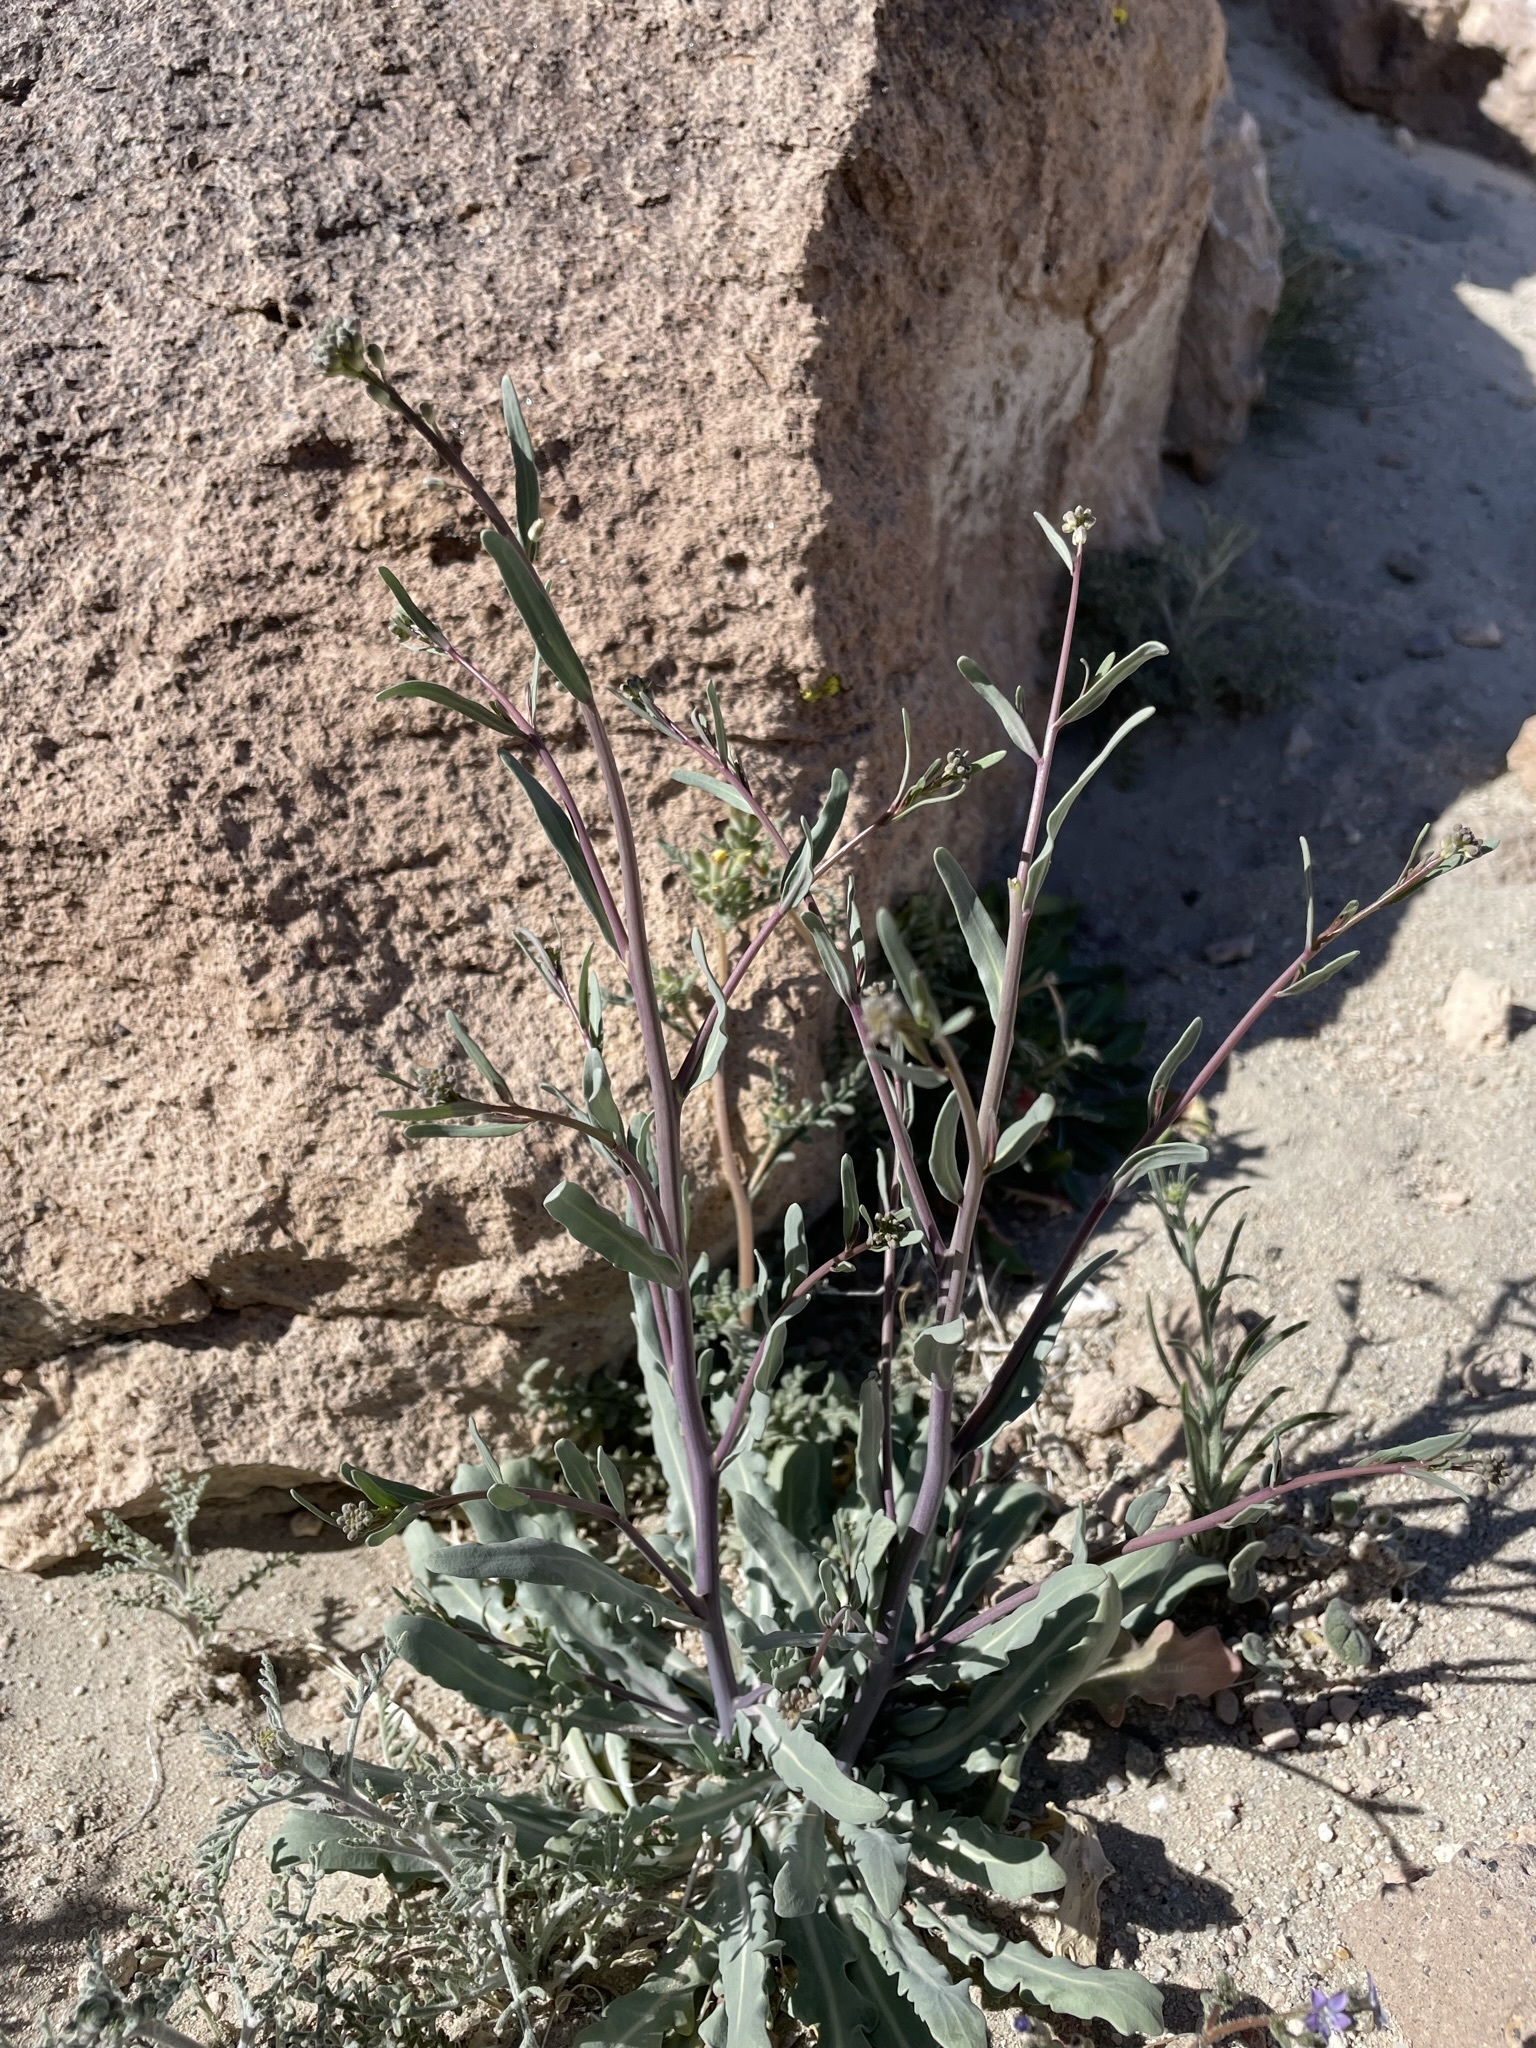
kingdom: Plantae
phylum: Tracheophyta
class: Magnoliopsida
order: Brassicales
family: Brassicaceae
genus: Streptanthus
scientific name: Streptanthus longirostris
